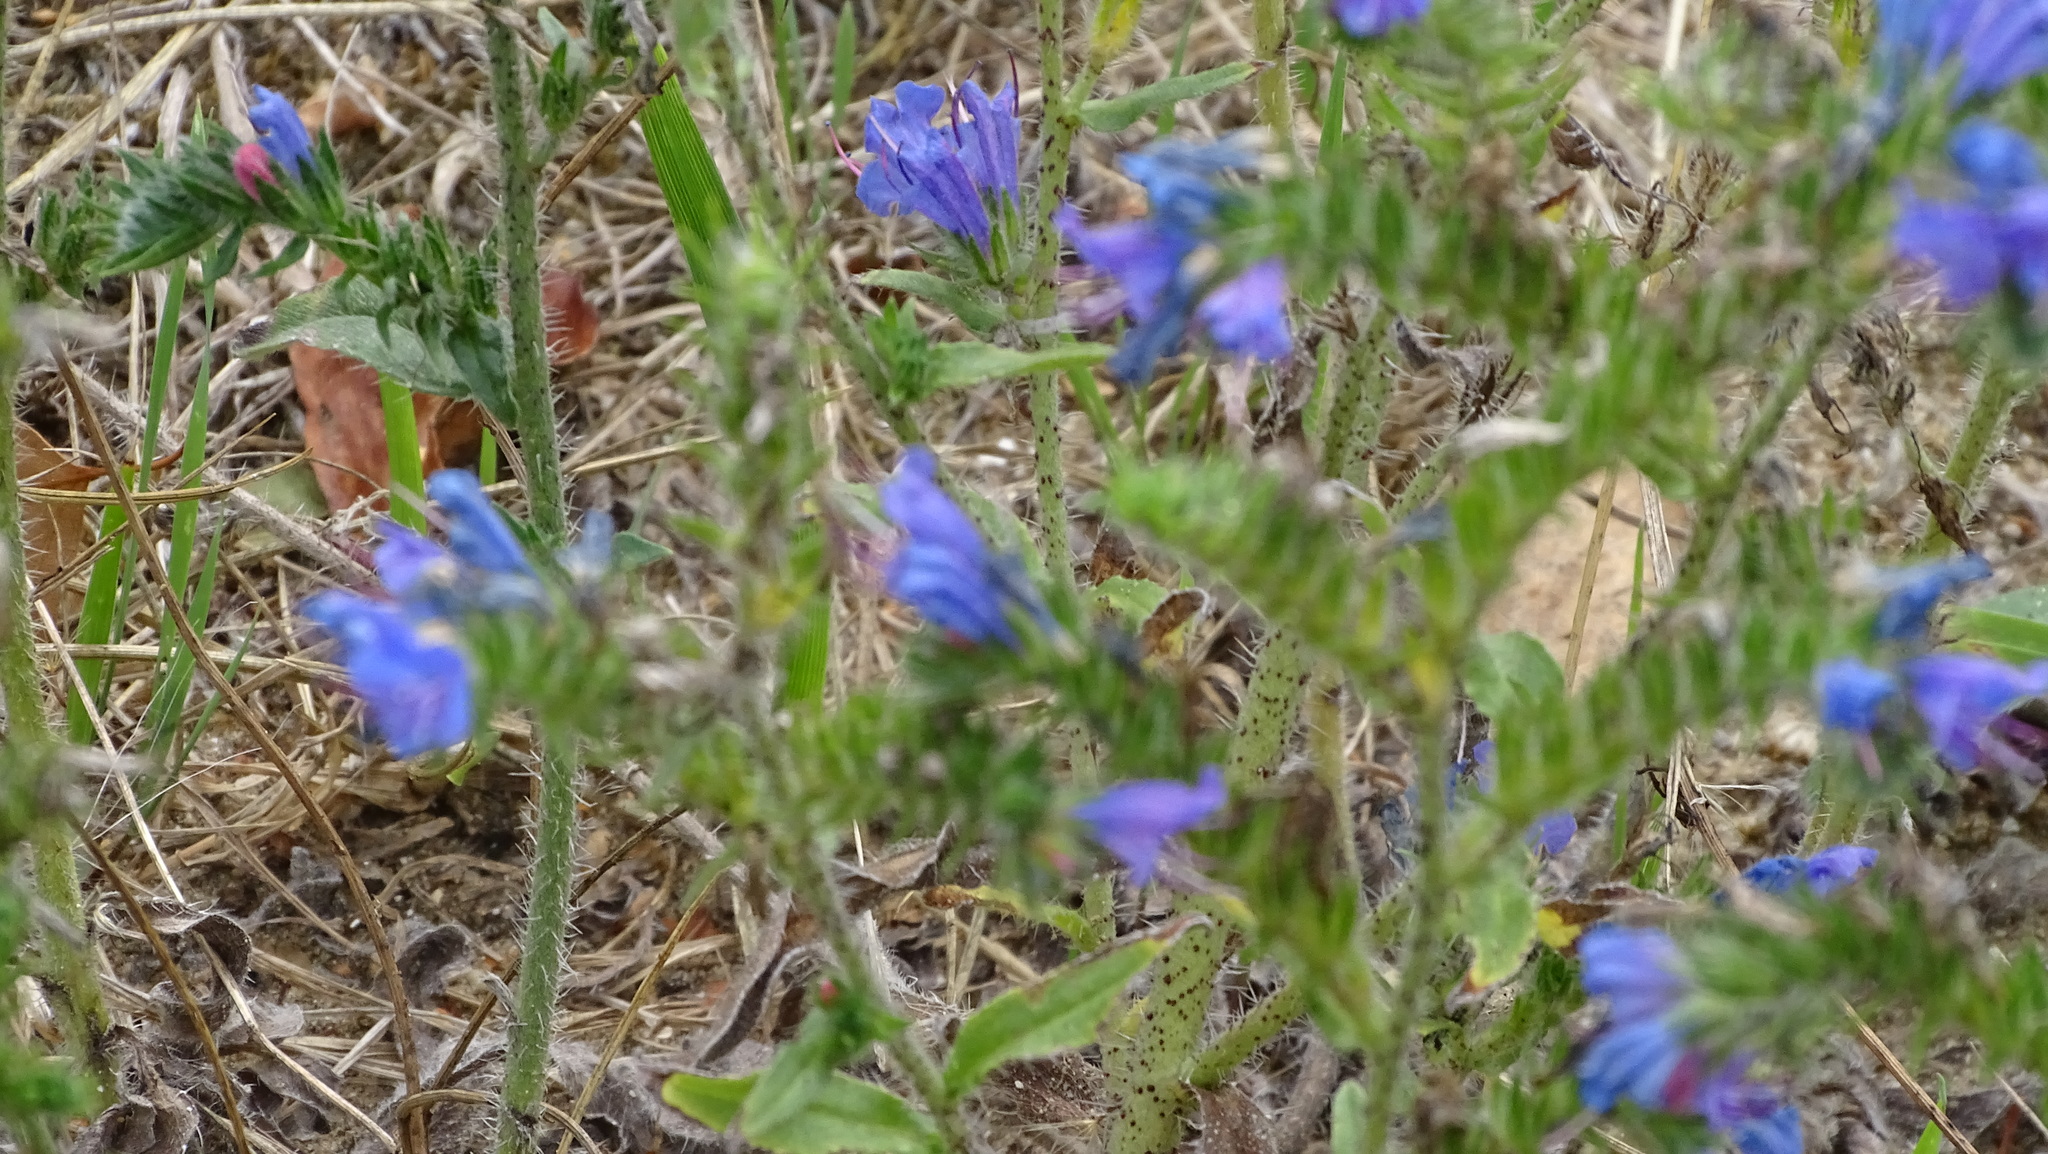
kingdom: Plantae
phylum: Tracheophyta
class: Magnoliopsida
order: Asterales
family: Asteraceae
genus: Cirsium
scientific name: Cirsium arvense
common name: Creeping thistle
